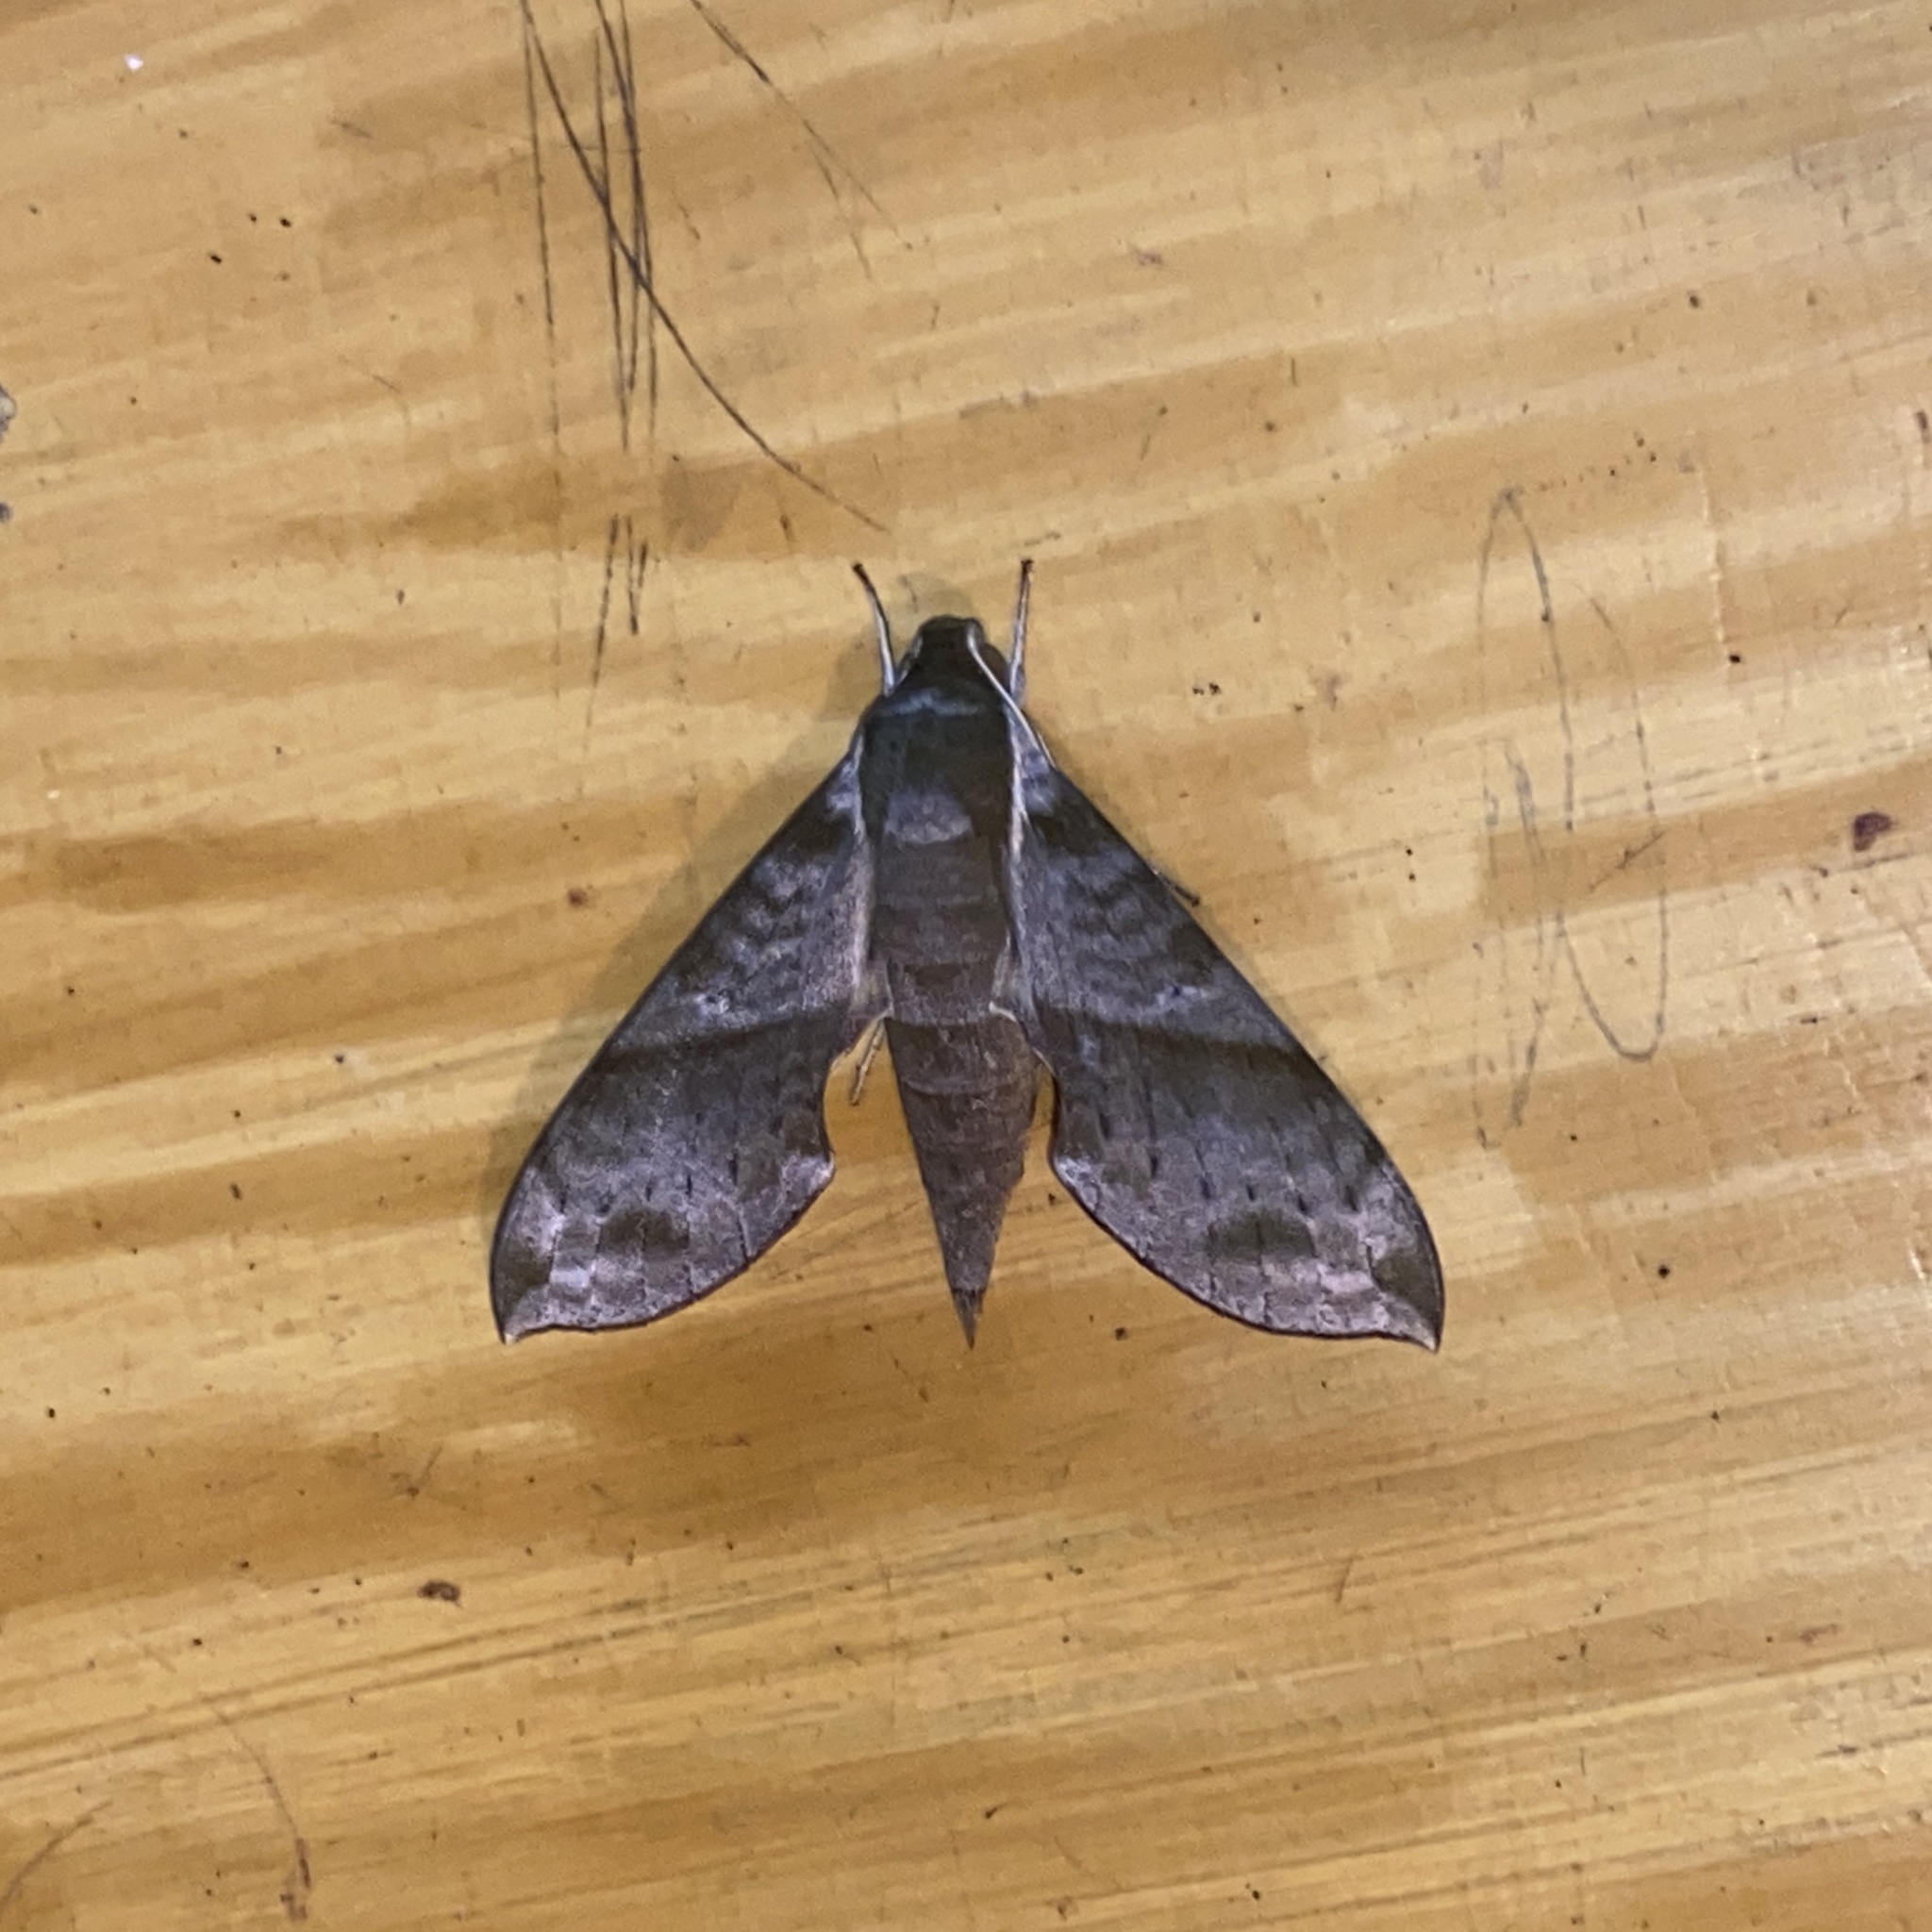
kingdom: Animalia
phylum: Arthropoda
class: Insecta
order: Lepidoptera
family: Sphingidae
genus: Xylophanes
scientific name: Xylophanes pistacina
